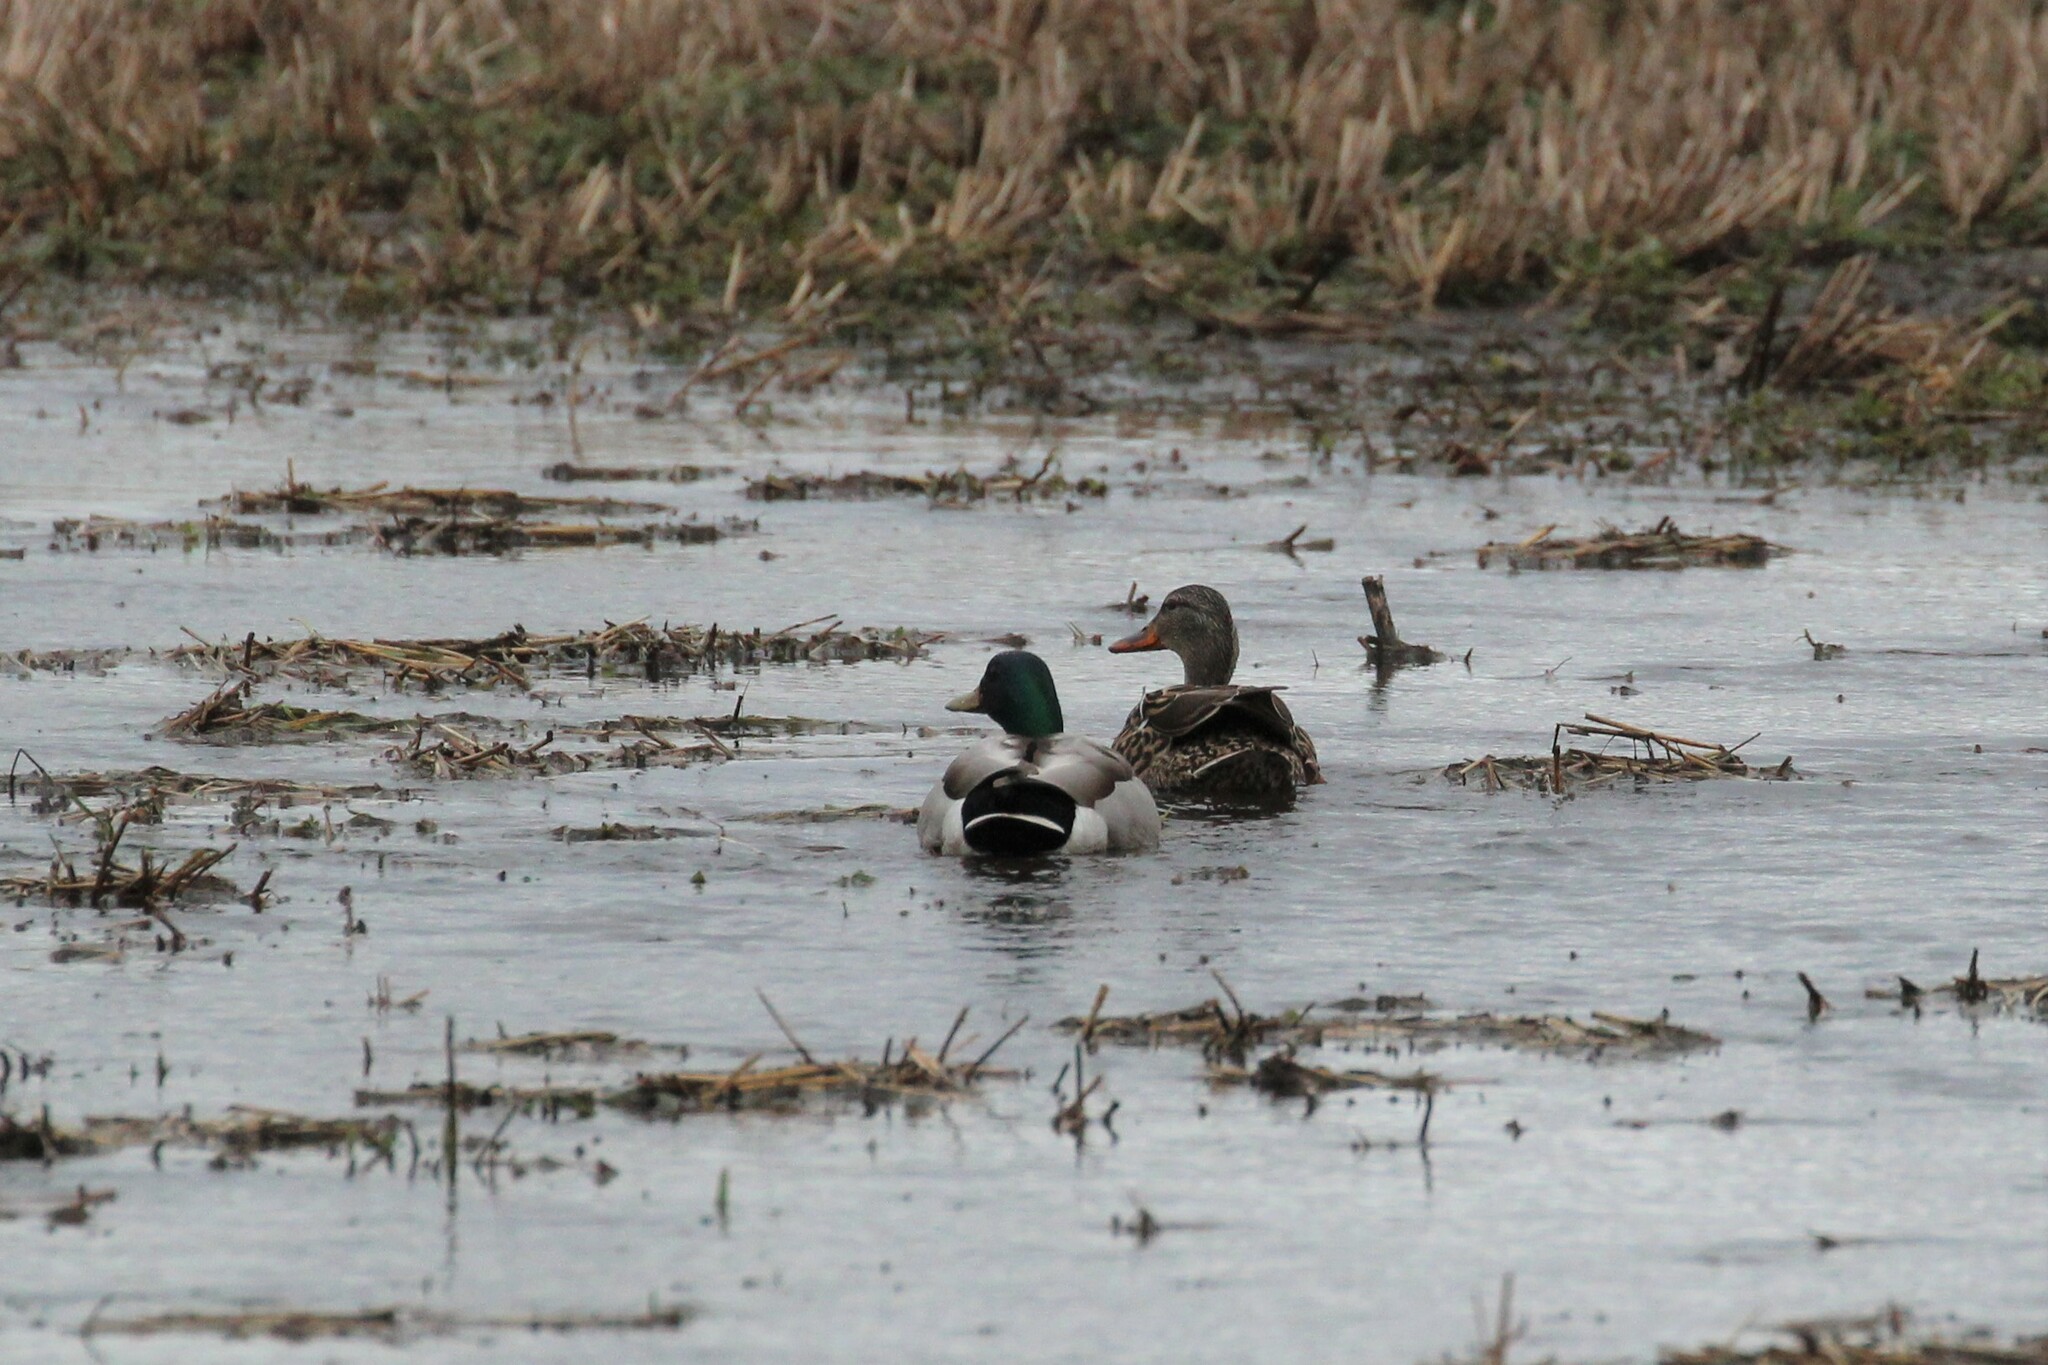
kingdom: Animalia
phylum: Chordata
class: Aves
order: Anseriformes
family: Anatidae
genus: Anas
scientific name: Anas platyrhynchos
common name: Mallard
